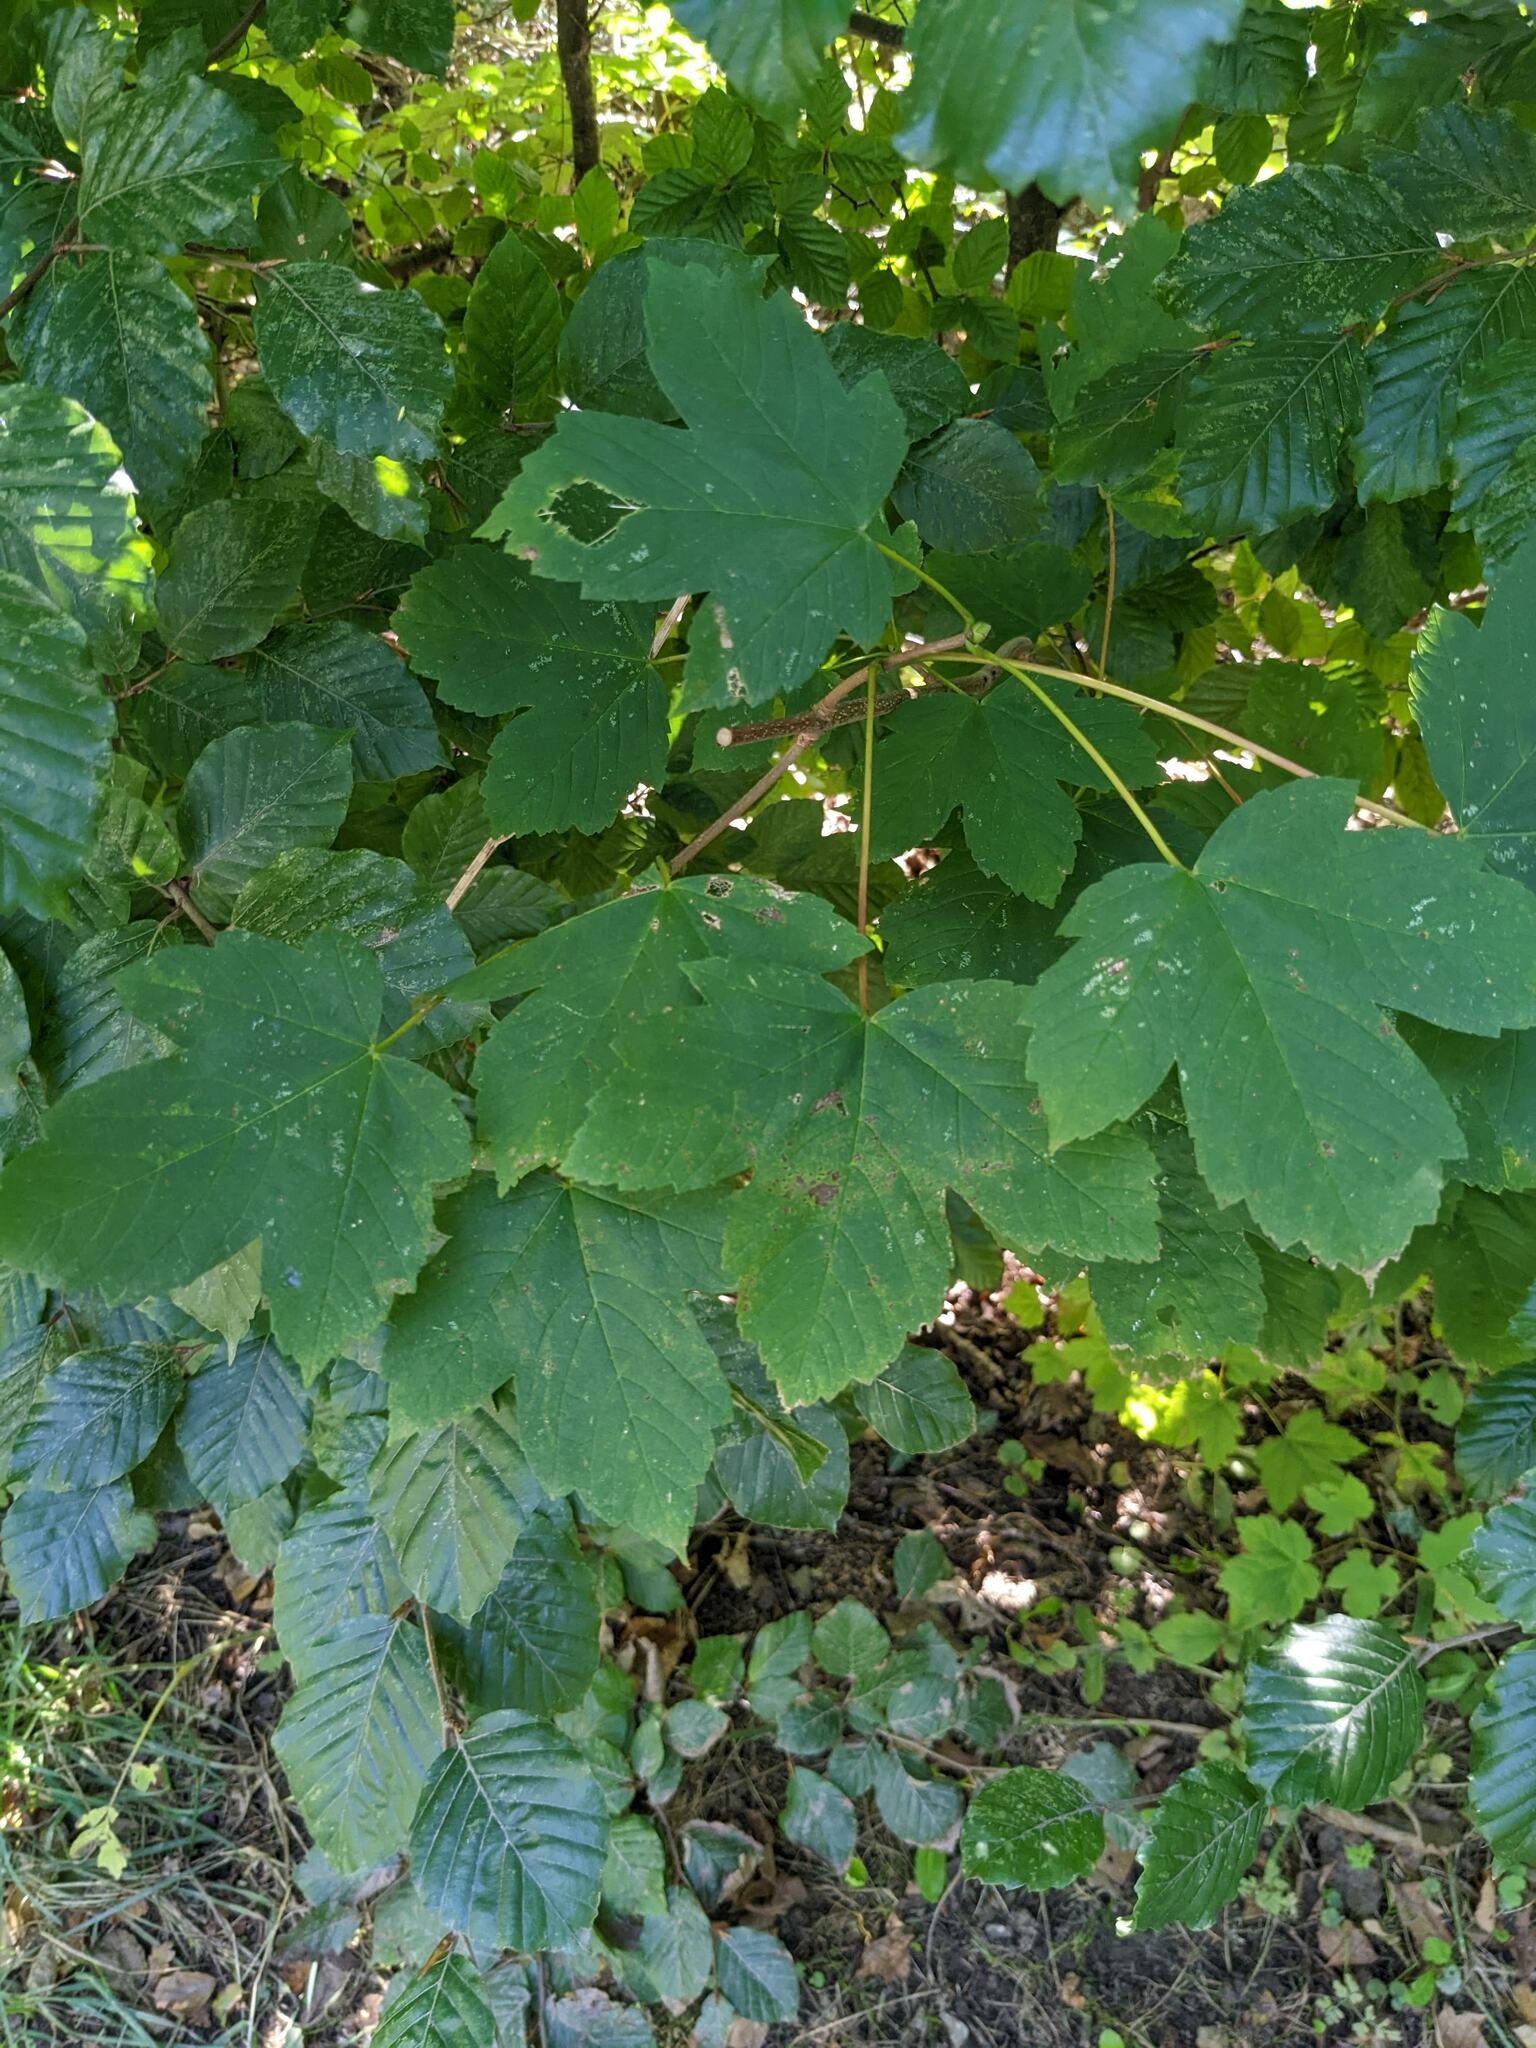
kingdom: Plantae
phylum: Tracheophyta
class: Magnoliopsida
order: Sapindales
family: Sapindaceae
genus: Acer
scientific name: Acer pseudoplatanus
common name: Sycamore
